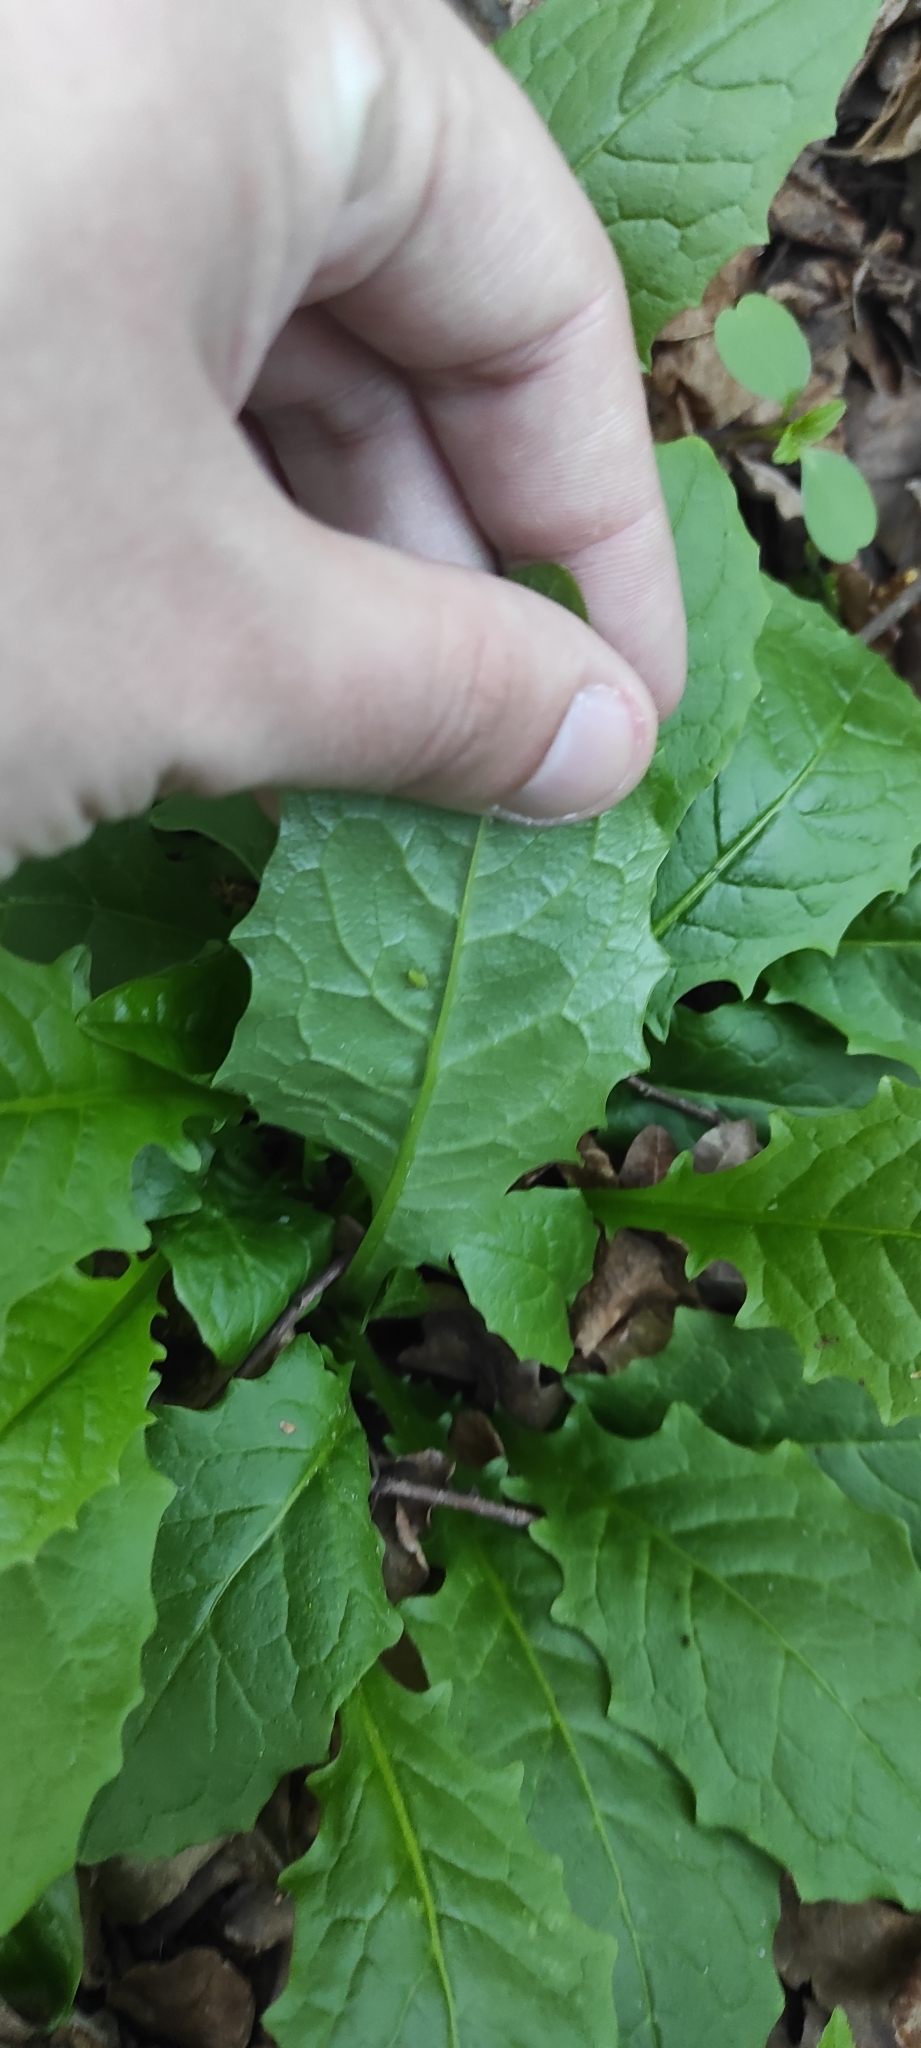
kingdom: Plantae
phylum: Tracheophyta
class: Magnoliopsida
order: Asterales
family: Asteraceae
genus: Crepis
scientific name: Crepis paludosa
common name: Marsh hawk's-beard
